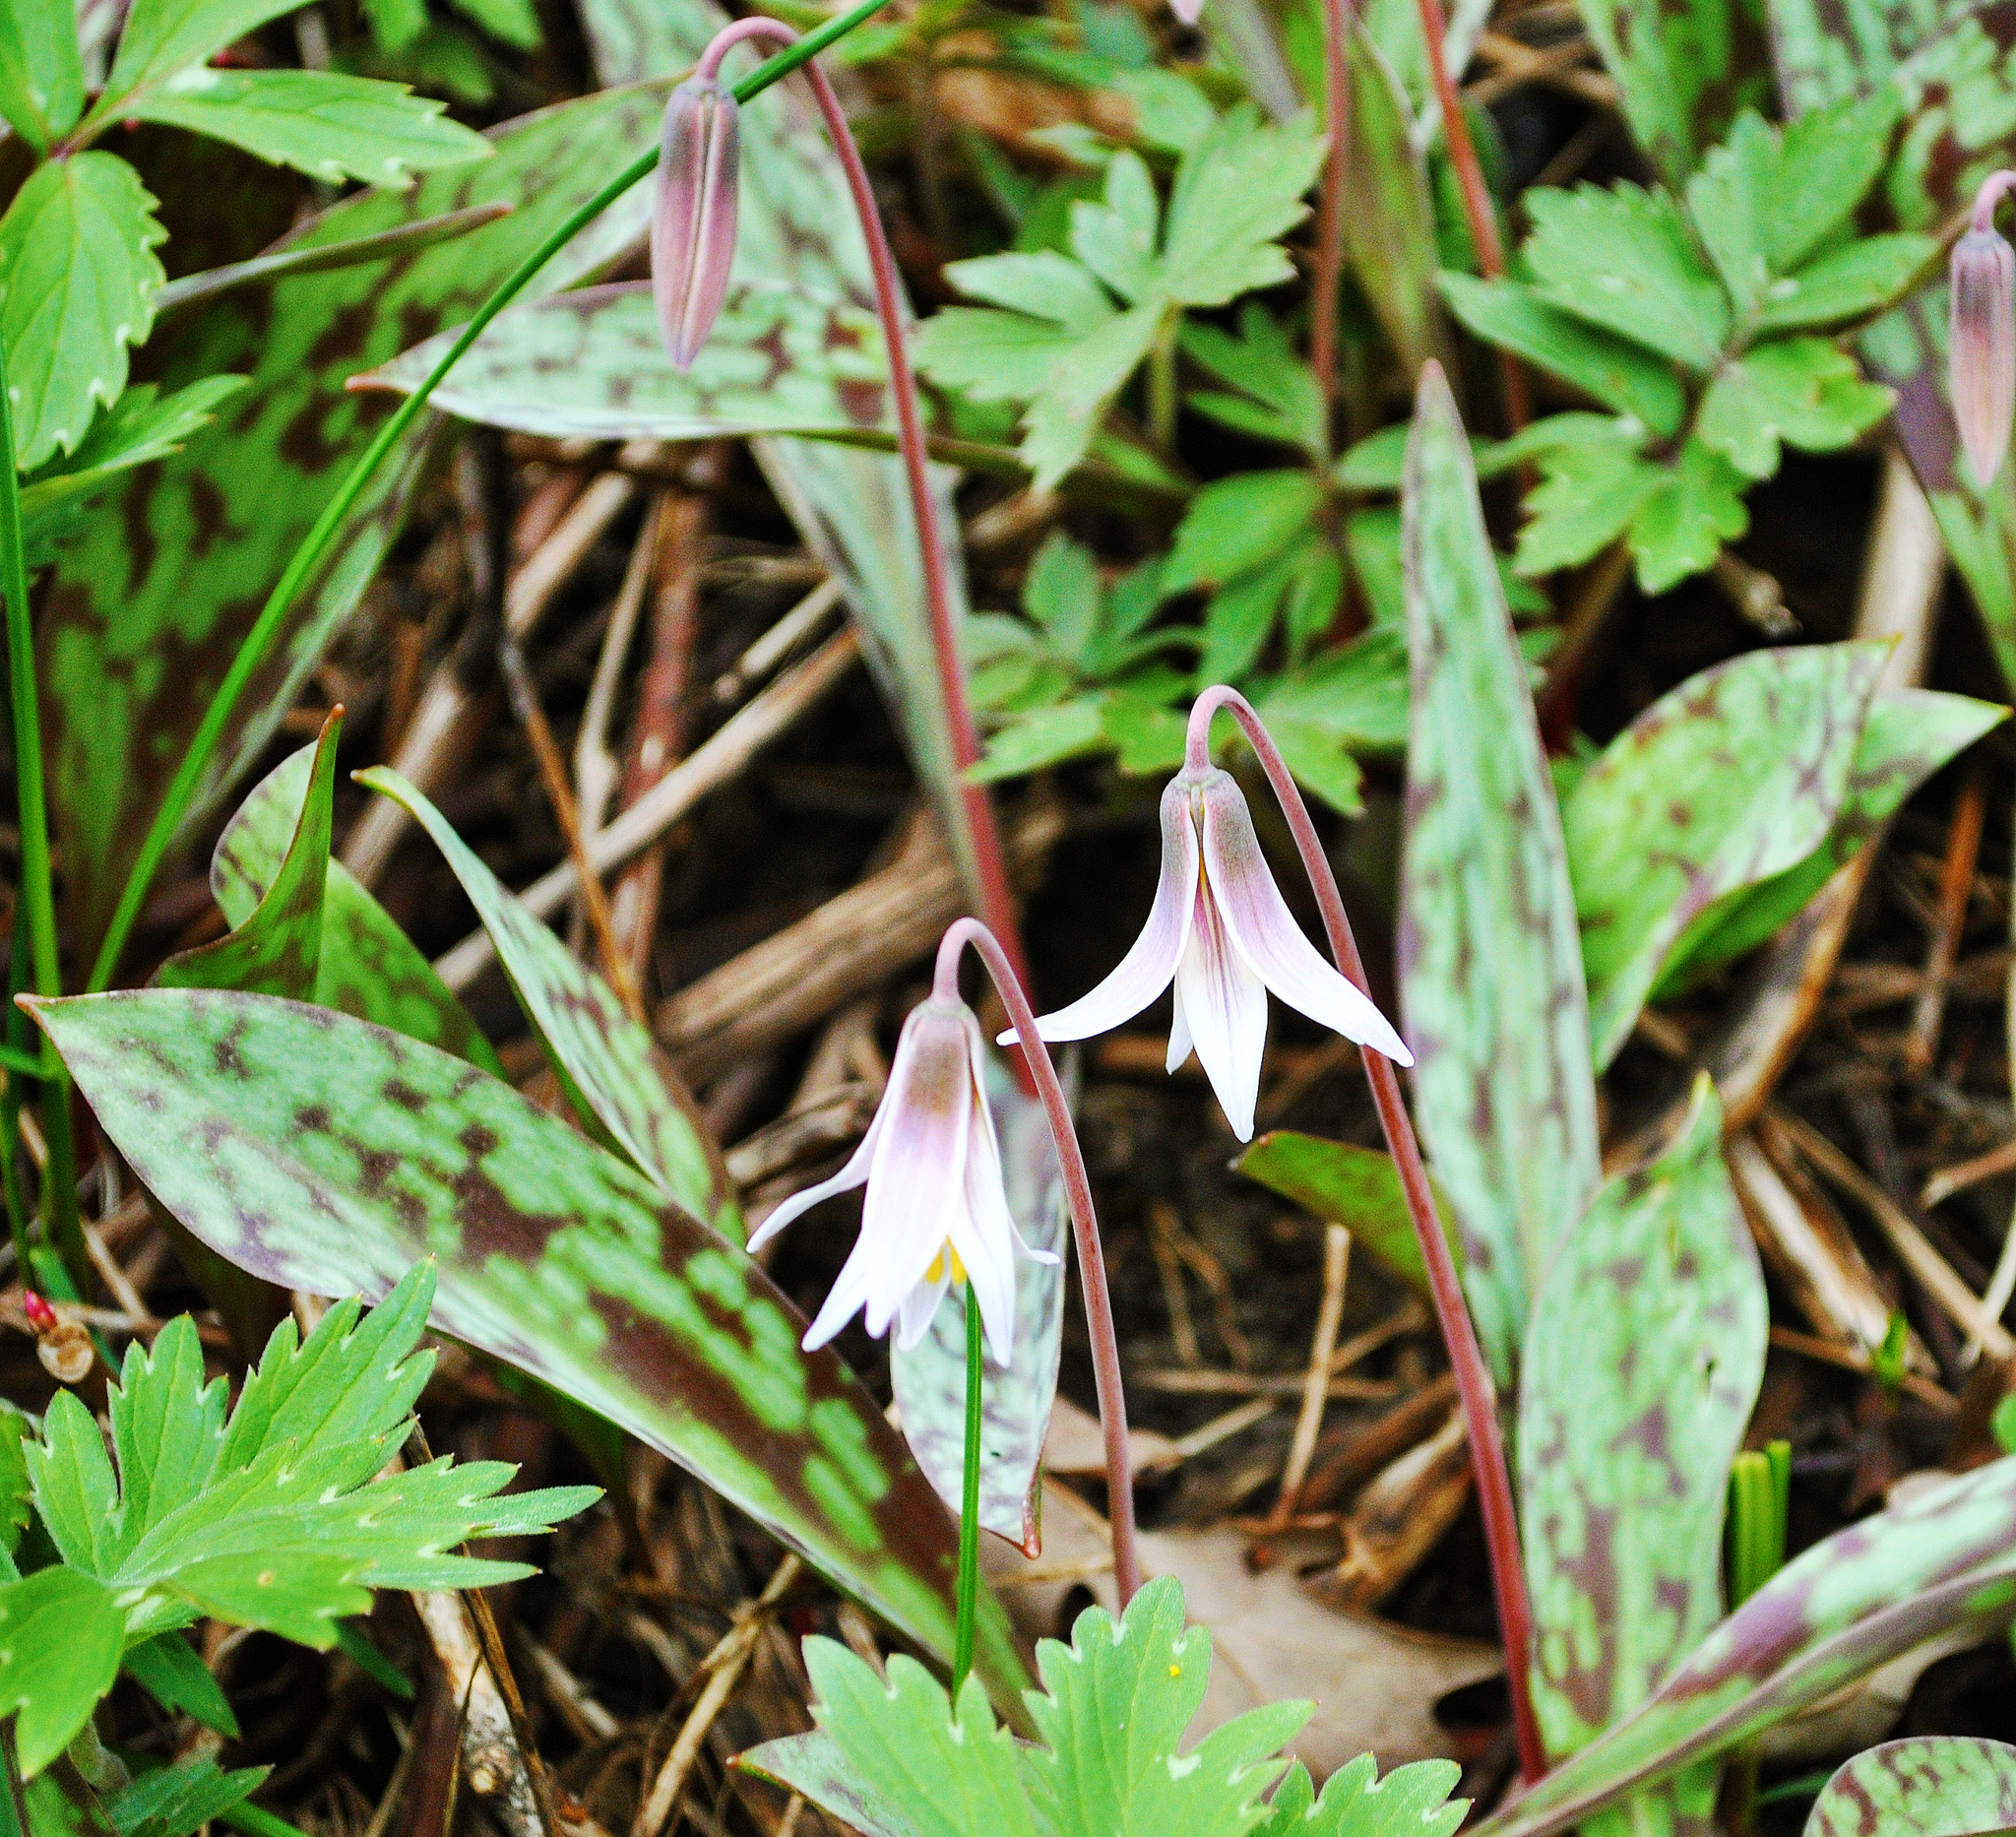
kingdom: Plantae
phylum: Tracheophyta
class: Liliopsida
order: Liliales
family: Liliaceae
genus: Erythronium
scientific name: Erythronium albidum
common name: White trout-lily
